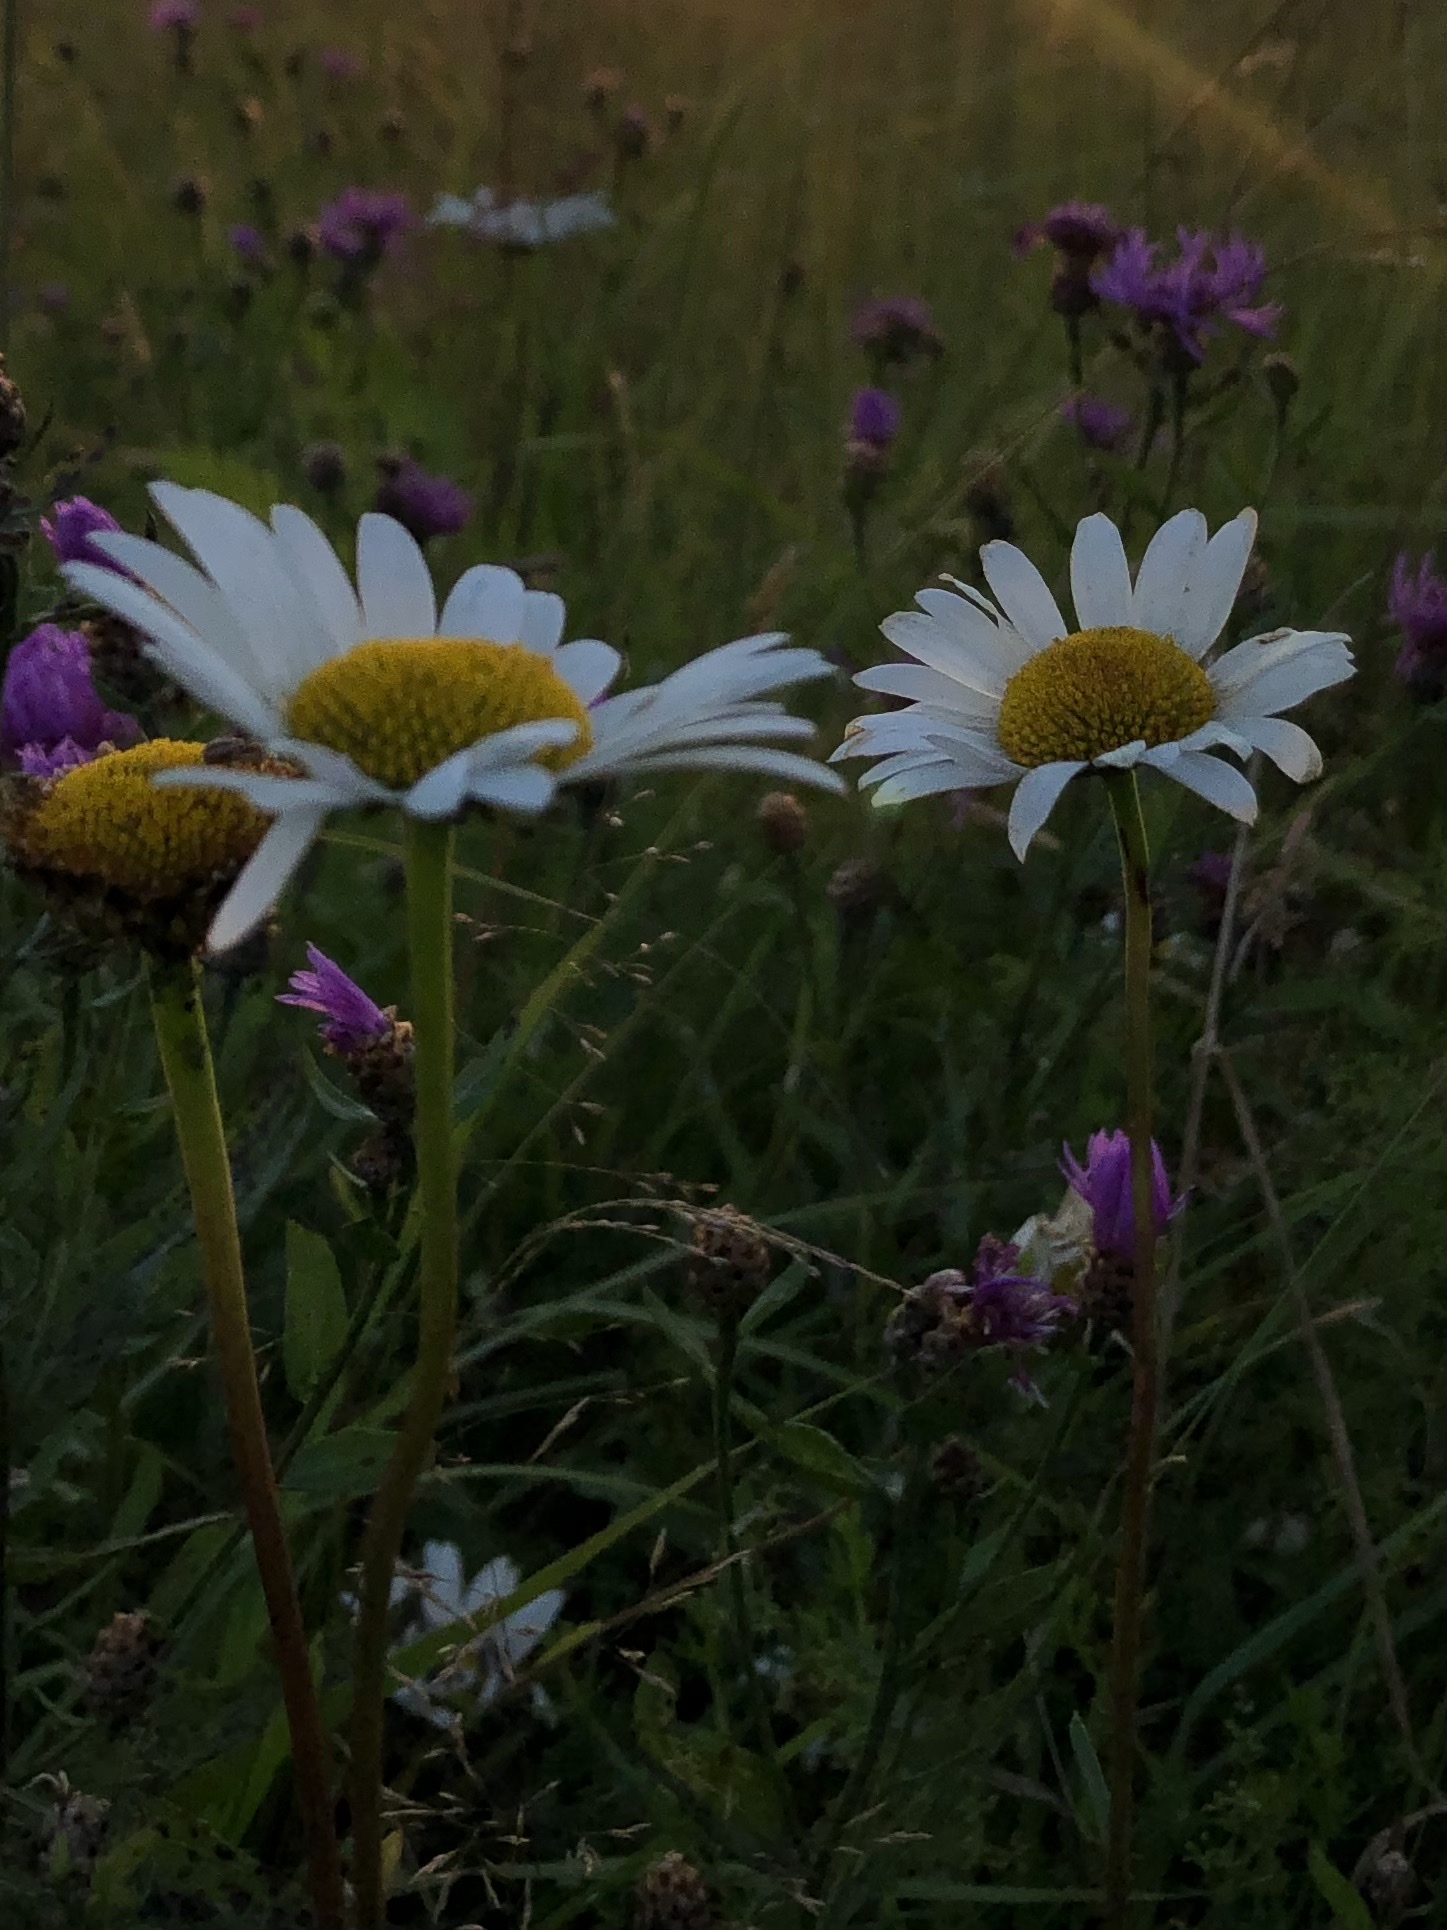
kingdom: Plantae
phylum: Tracheophyta
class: Magnoliopsida
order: Asterales
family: Asteraceae
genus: Leucanthemum
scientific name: Leucanthemum vulgare
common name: Oxeye daisy
